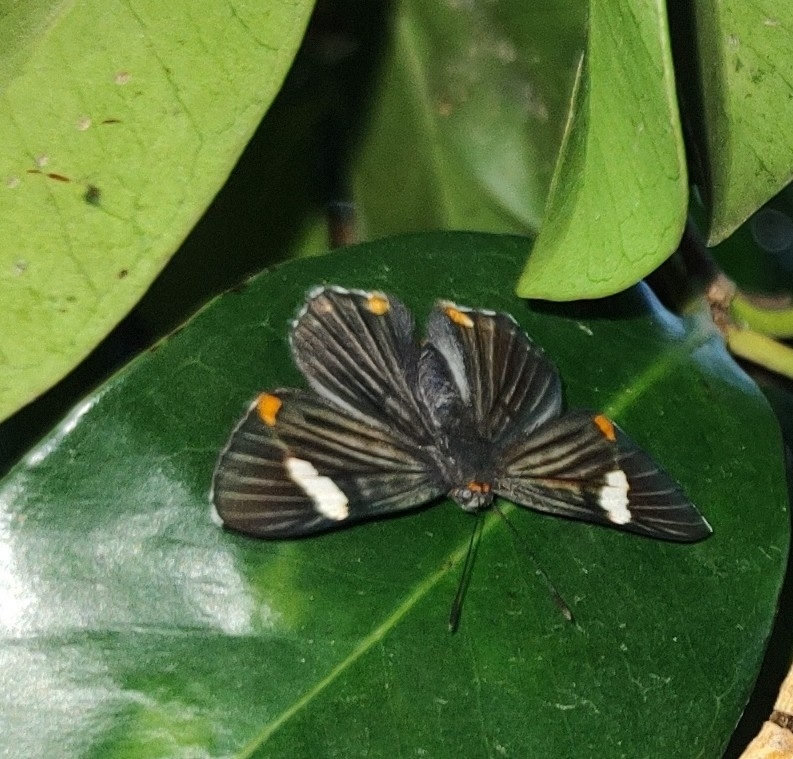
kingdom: Animalia
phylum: Arthropoda
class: Insecta
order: Lepidoptera
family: Riodinidae
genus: Riodina
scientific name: Riodina lycisca
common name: Lycisca metalmark
